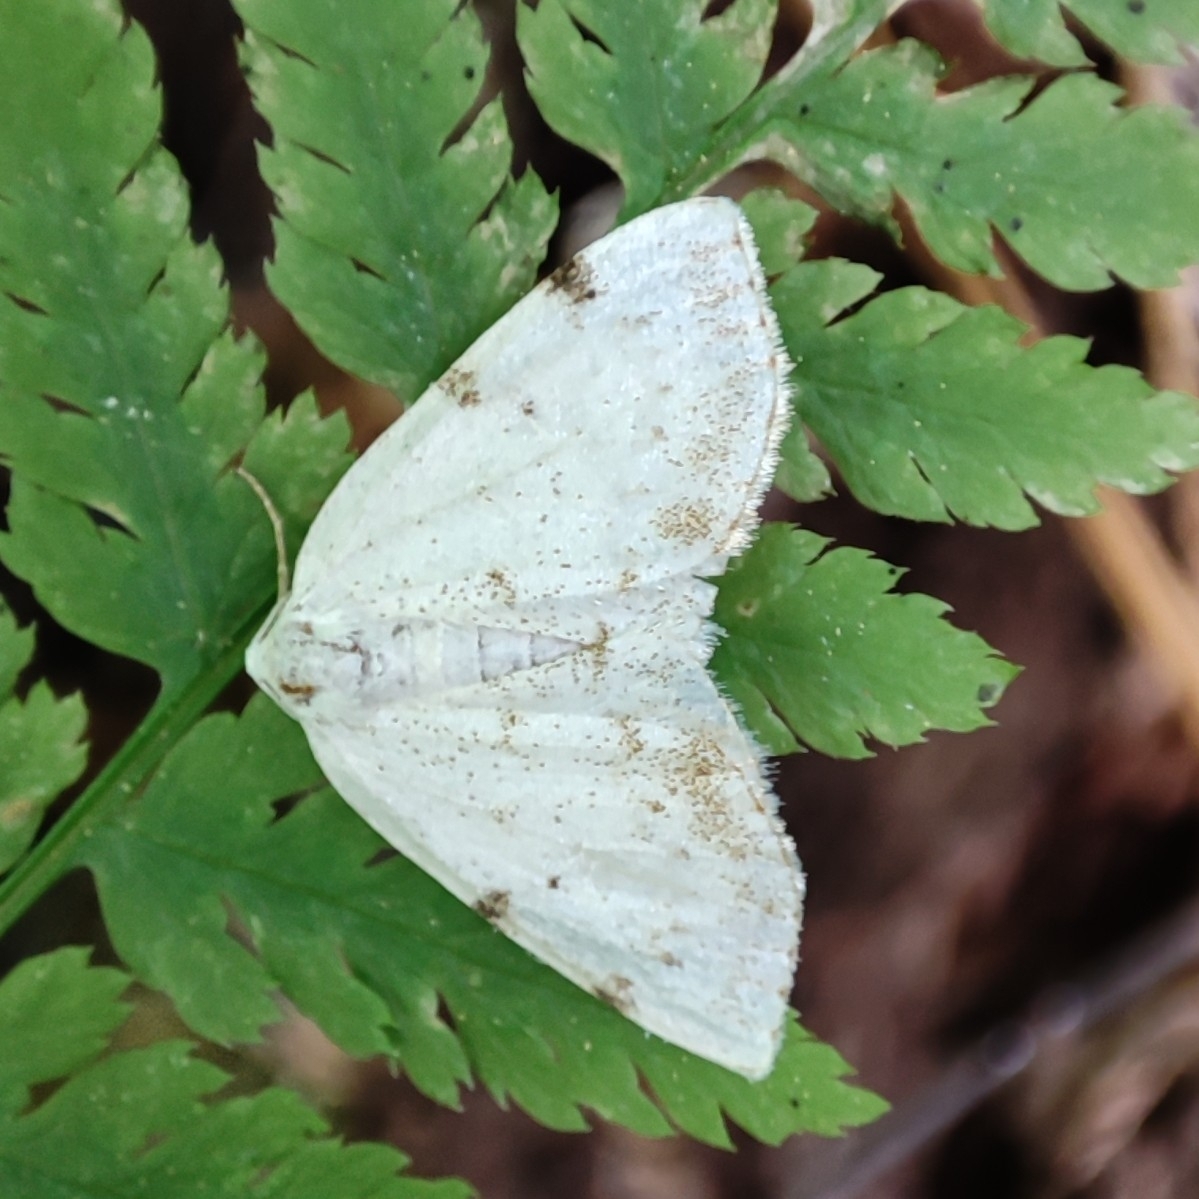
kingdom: Animalia
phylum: Arthropoda
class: Insecta
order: Lepidoptera
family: Geometridae
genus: Lomographa
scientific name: Lomographa bimaculata
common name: White-pinion spotted
